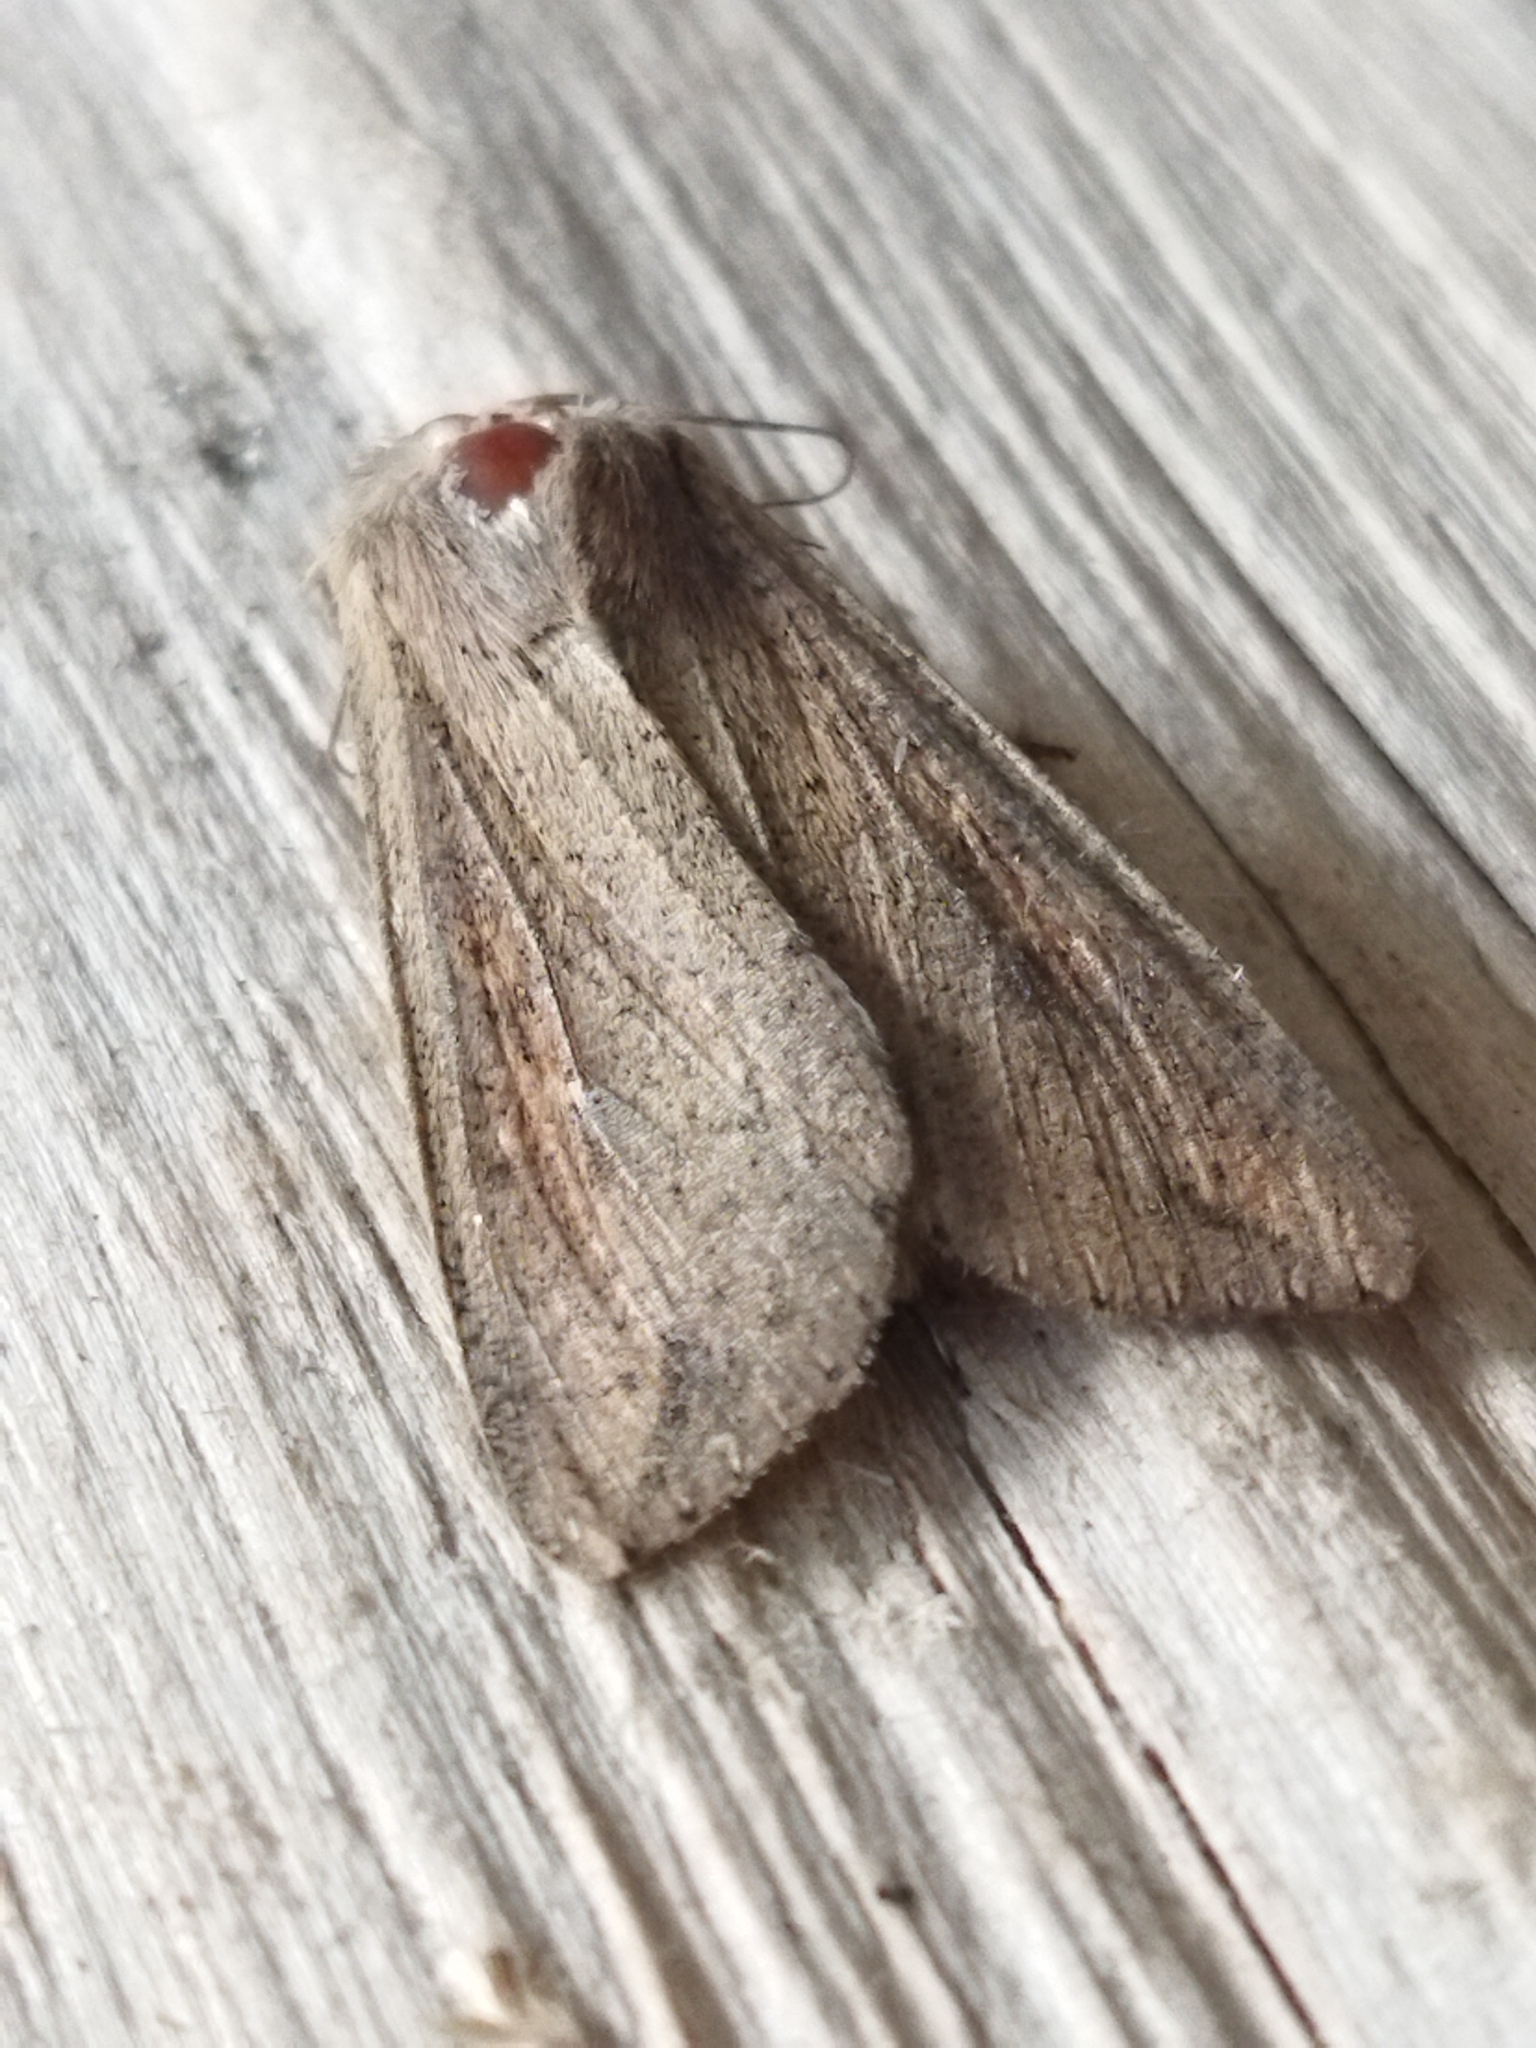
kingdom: Animalia
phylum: Arthropoda
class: Insecta
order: Lepidoptera
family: Noctuidae
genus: Mythimna
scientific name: Mythimna unipuncta
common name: White-speck
